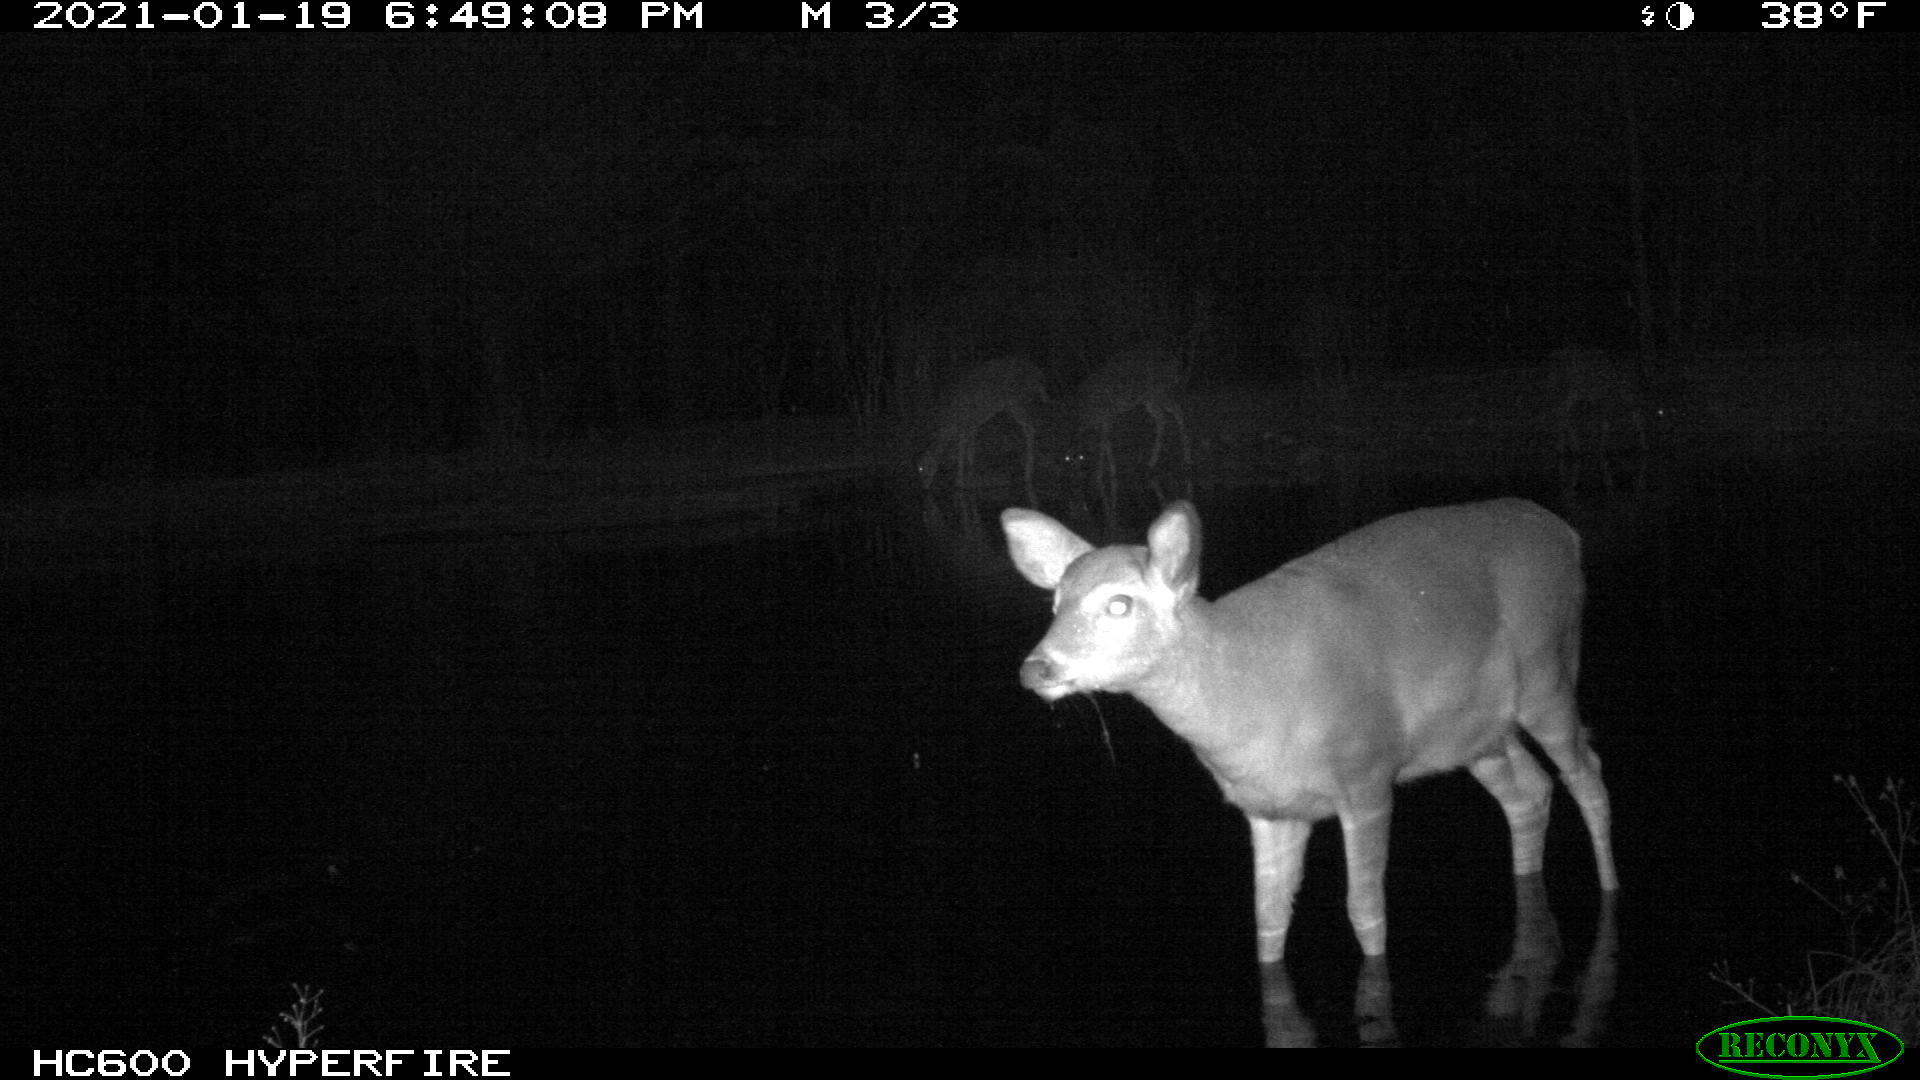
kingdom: Animalia
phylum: Chordata
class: Mammalia
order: Artiodactyla
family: Cervidae
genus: Odocoileus
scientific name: Odocoileus virginianus
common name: White-tailed deer
